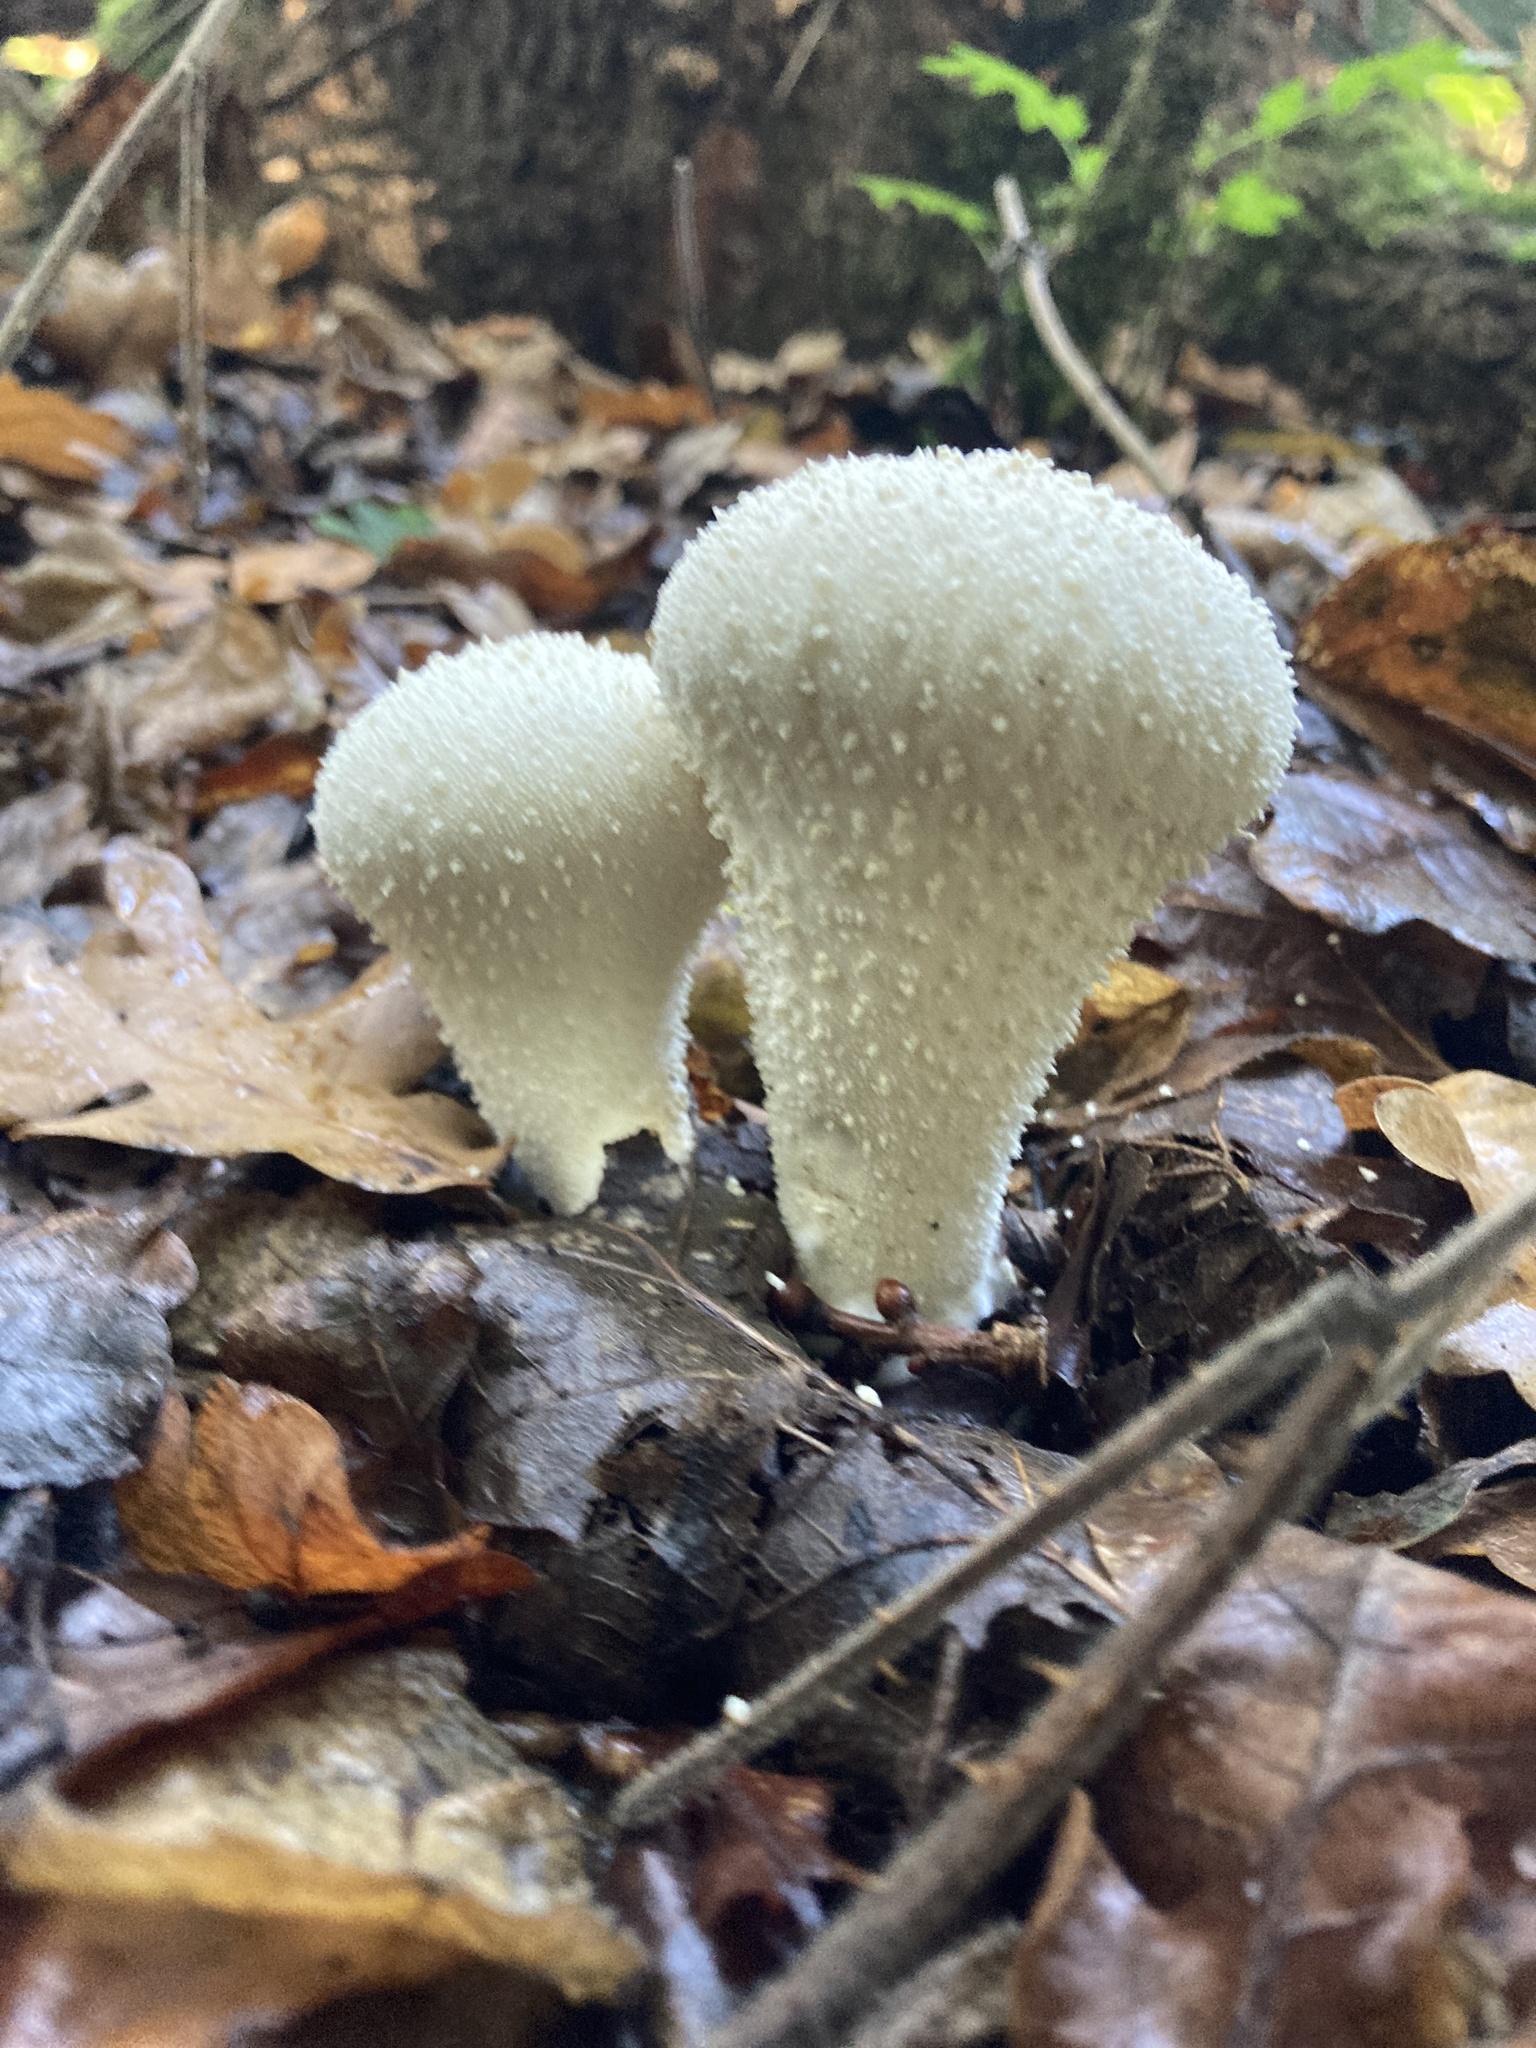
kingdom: Fungi
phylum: Basidiomycota
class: Agaricomycetes
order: Agaricales
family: Lycoperdaceae
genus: Lycoperdon
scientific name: Lycoperdon perlatum
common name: Common puffball
